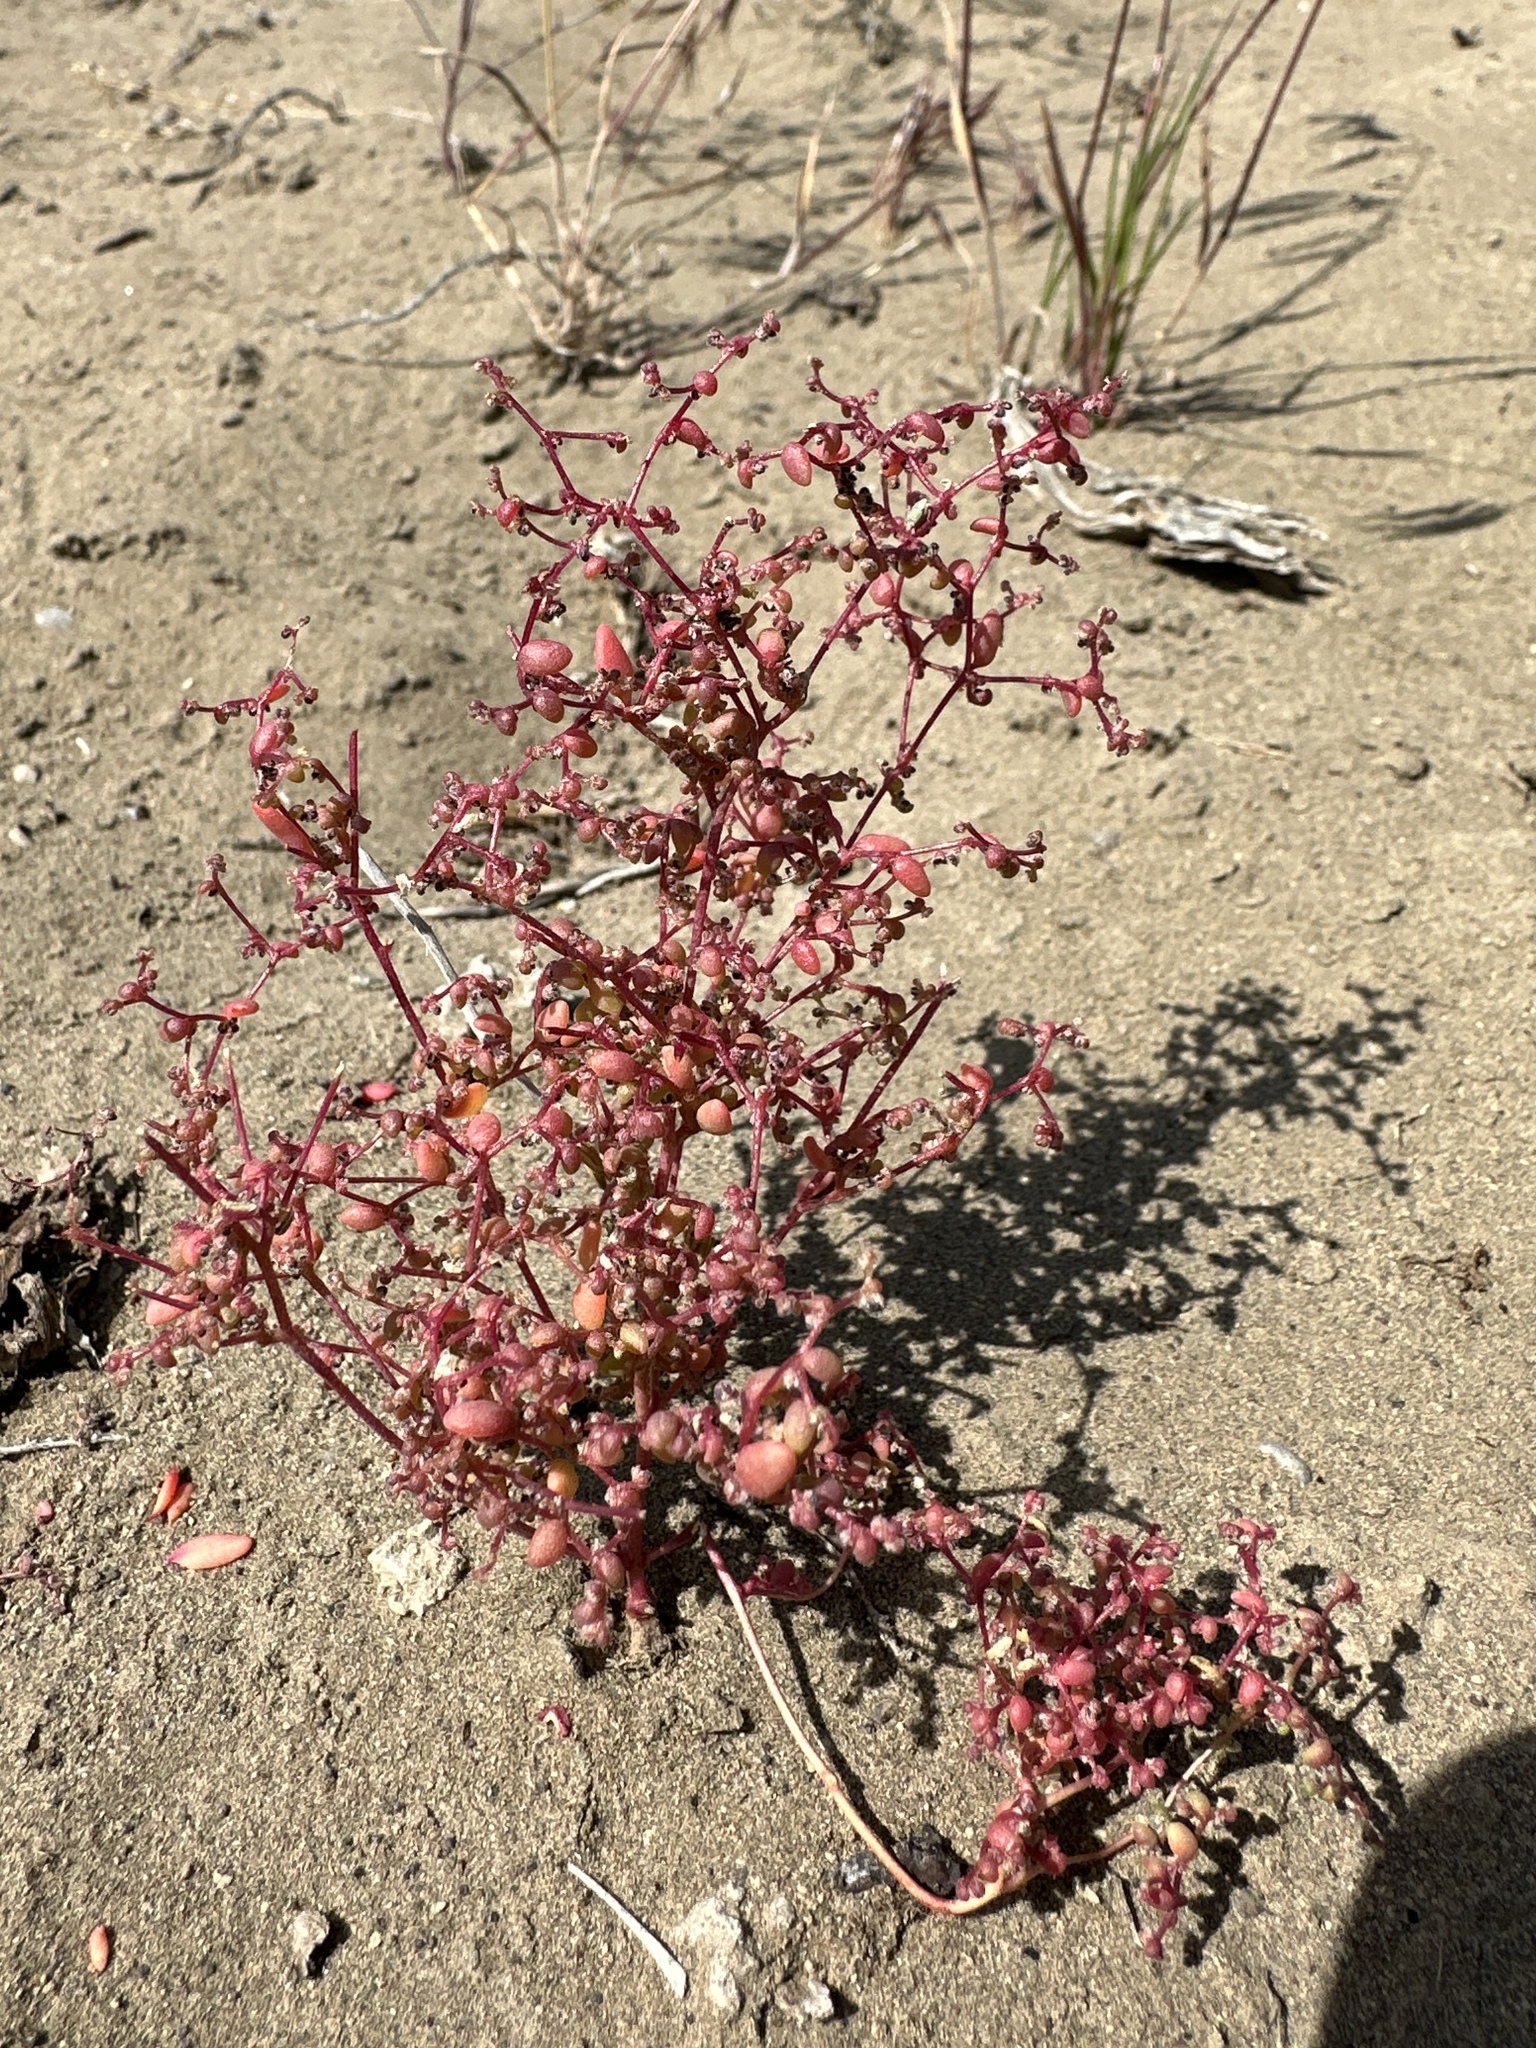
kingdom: Plantae
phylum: Tracheophyta
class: Magnoliopsida
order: Caryophyllales
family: Amaranthaceae
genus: Micromonolepis
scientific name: Micromonolepis pusilla
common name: Dwarf monolepis
